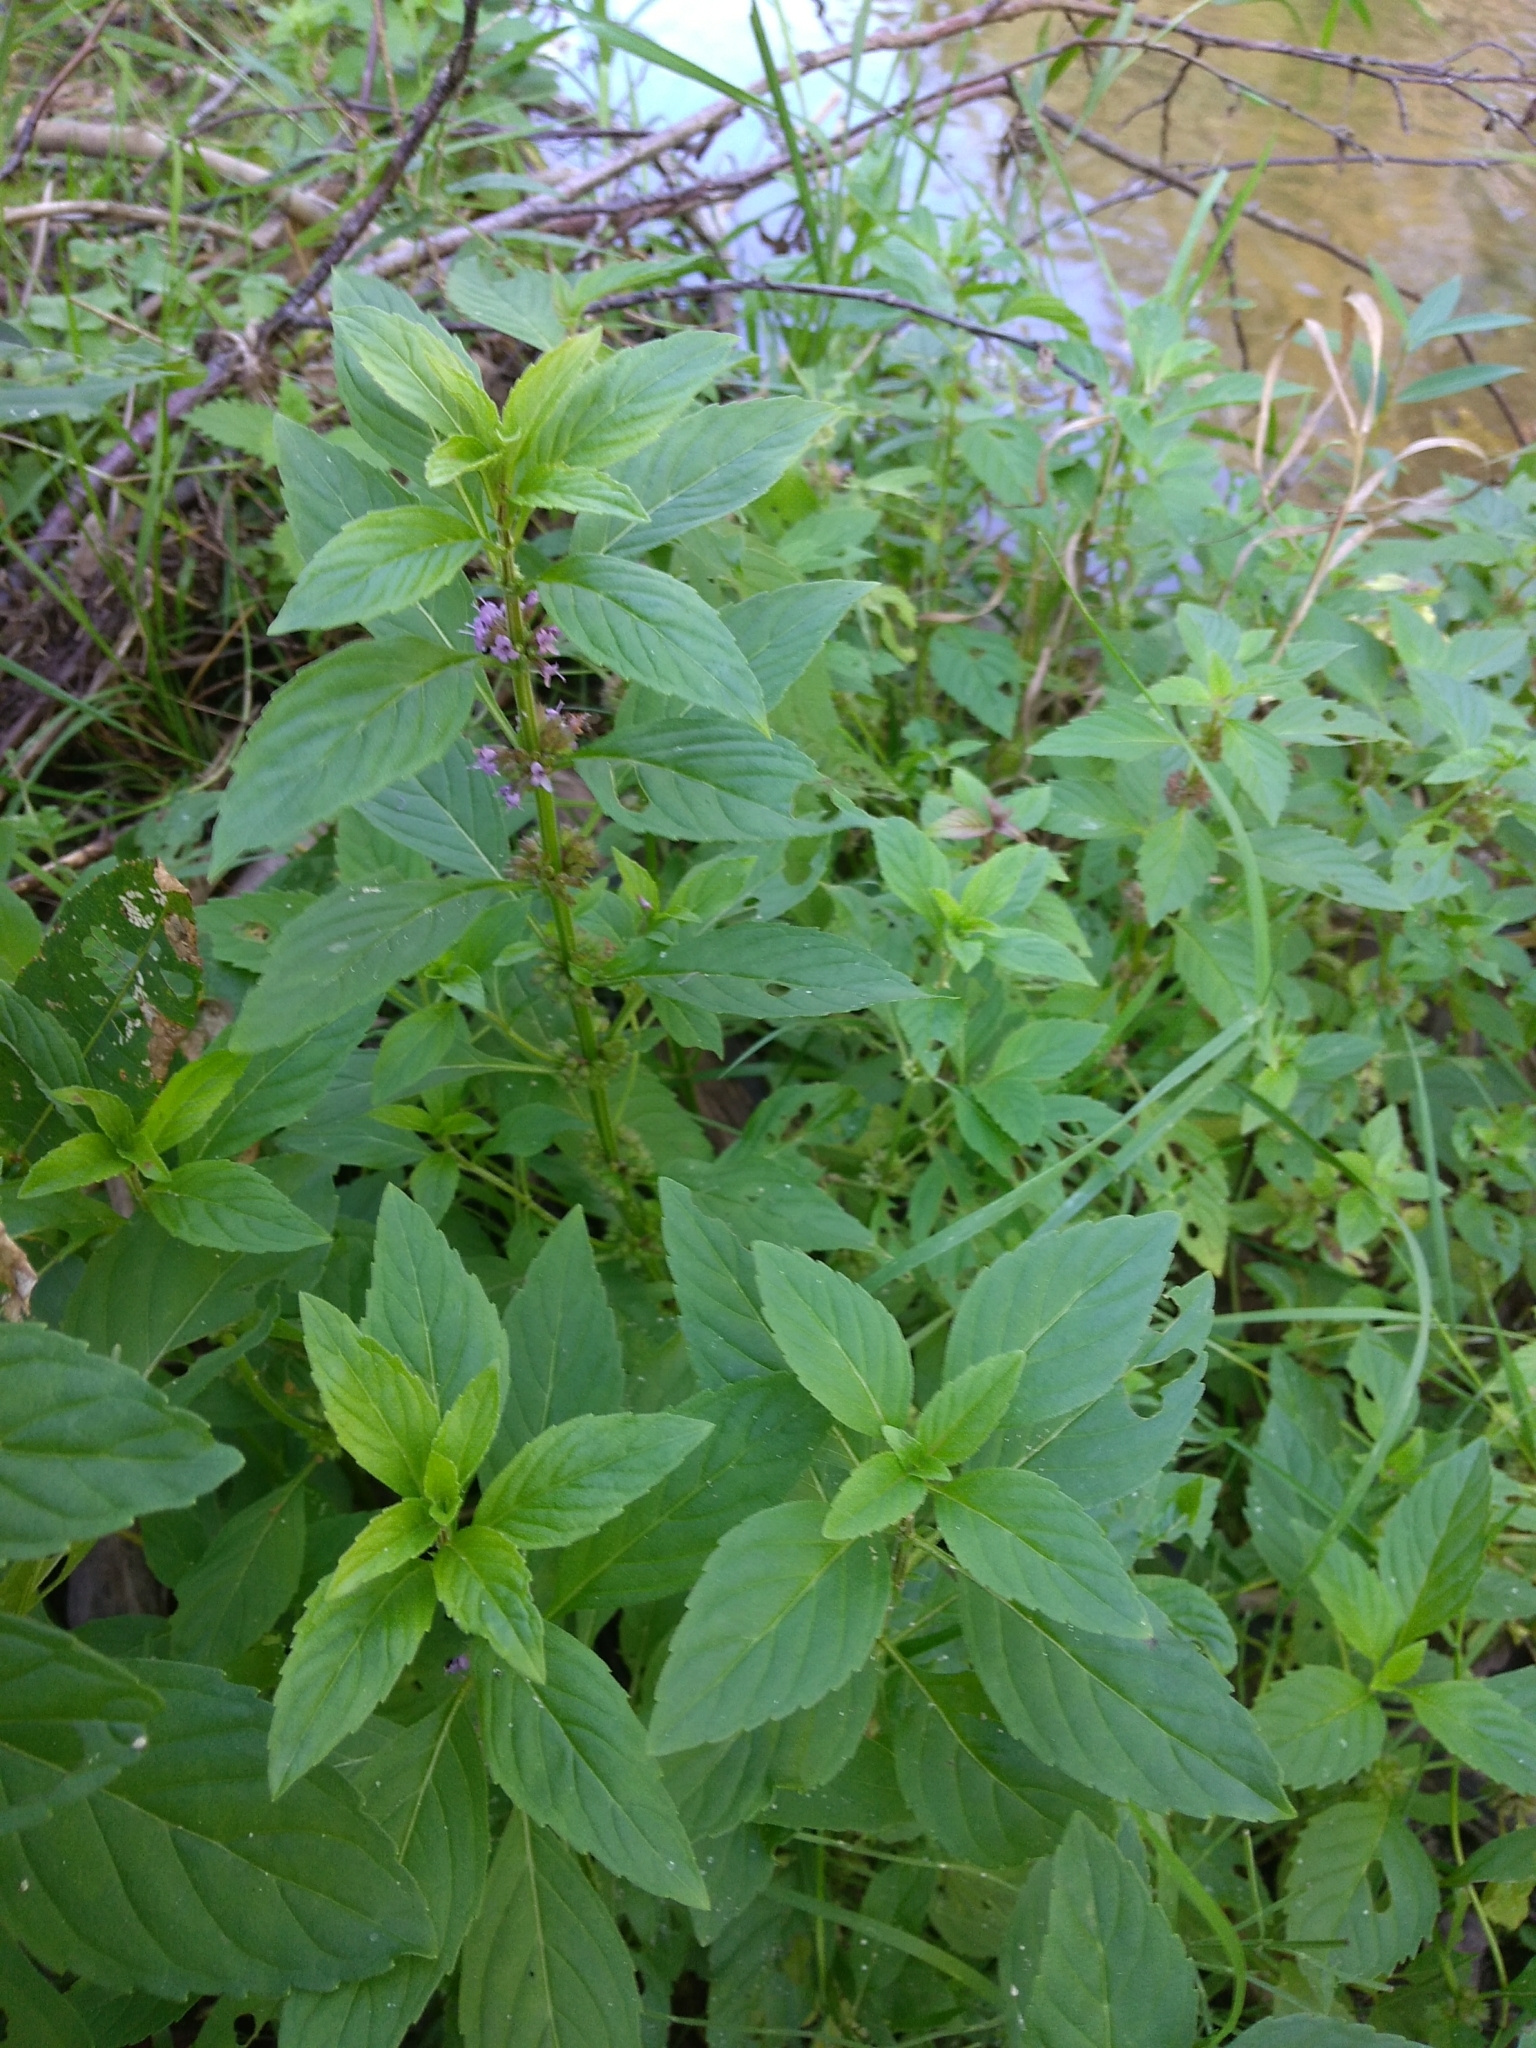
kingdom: Plantae
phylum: Tracheophyta
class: Magnoliopsida
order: Lamiales
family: Lamiaceae
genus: Mentha
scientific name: Mentha arvensis
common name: Corn mint
